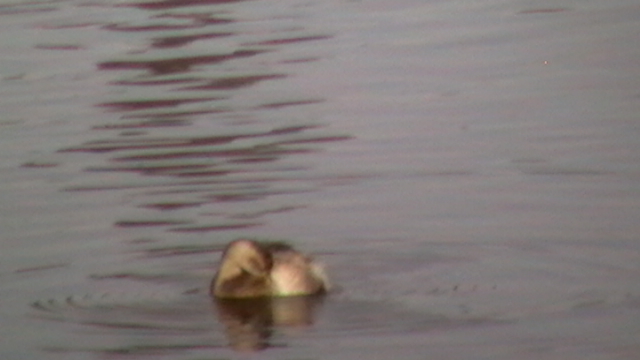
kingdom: Animalia
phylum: Chordata
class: Aves
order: Podicipediformes
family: Podicipedidae
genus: Tachybaptus
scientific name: Tachybaptus ruficollis
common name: Little grebe
